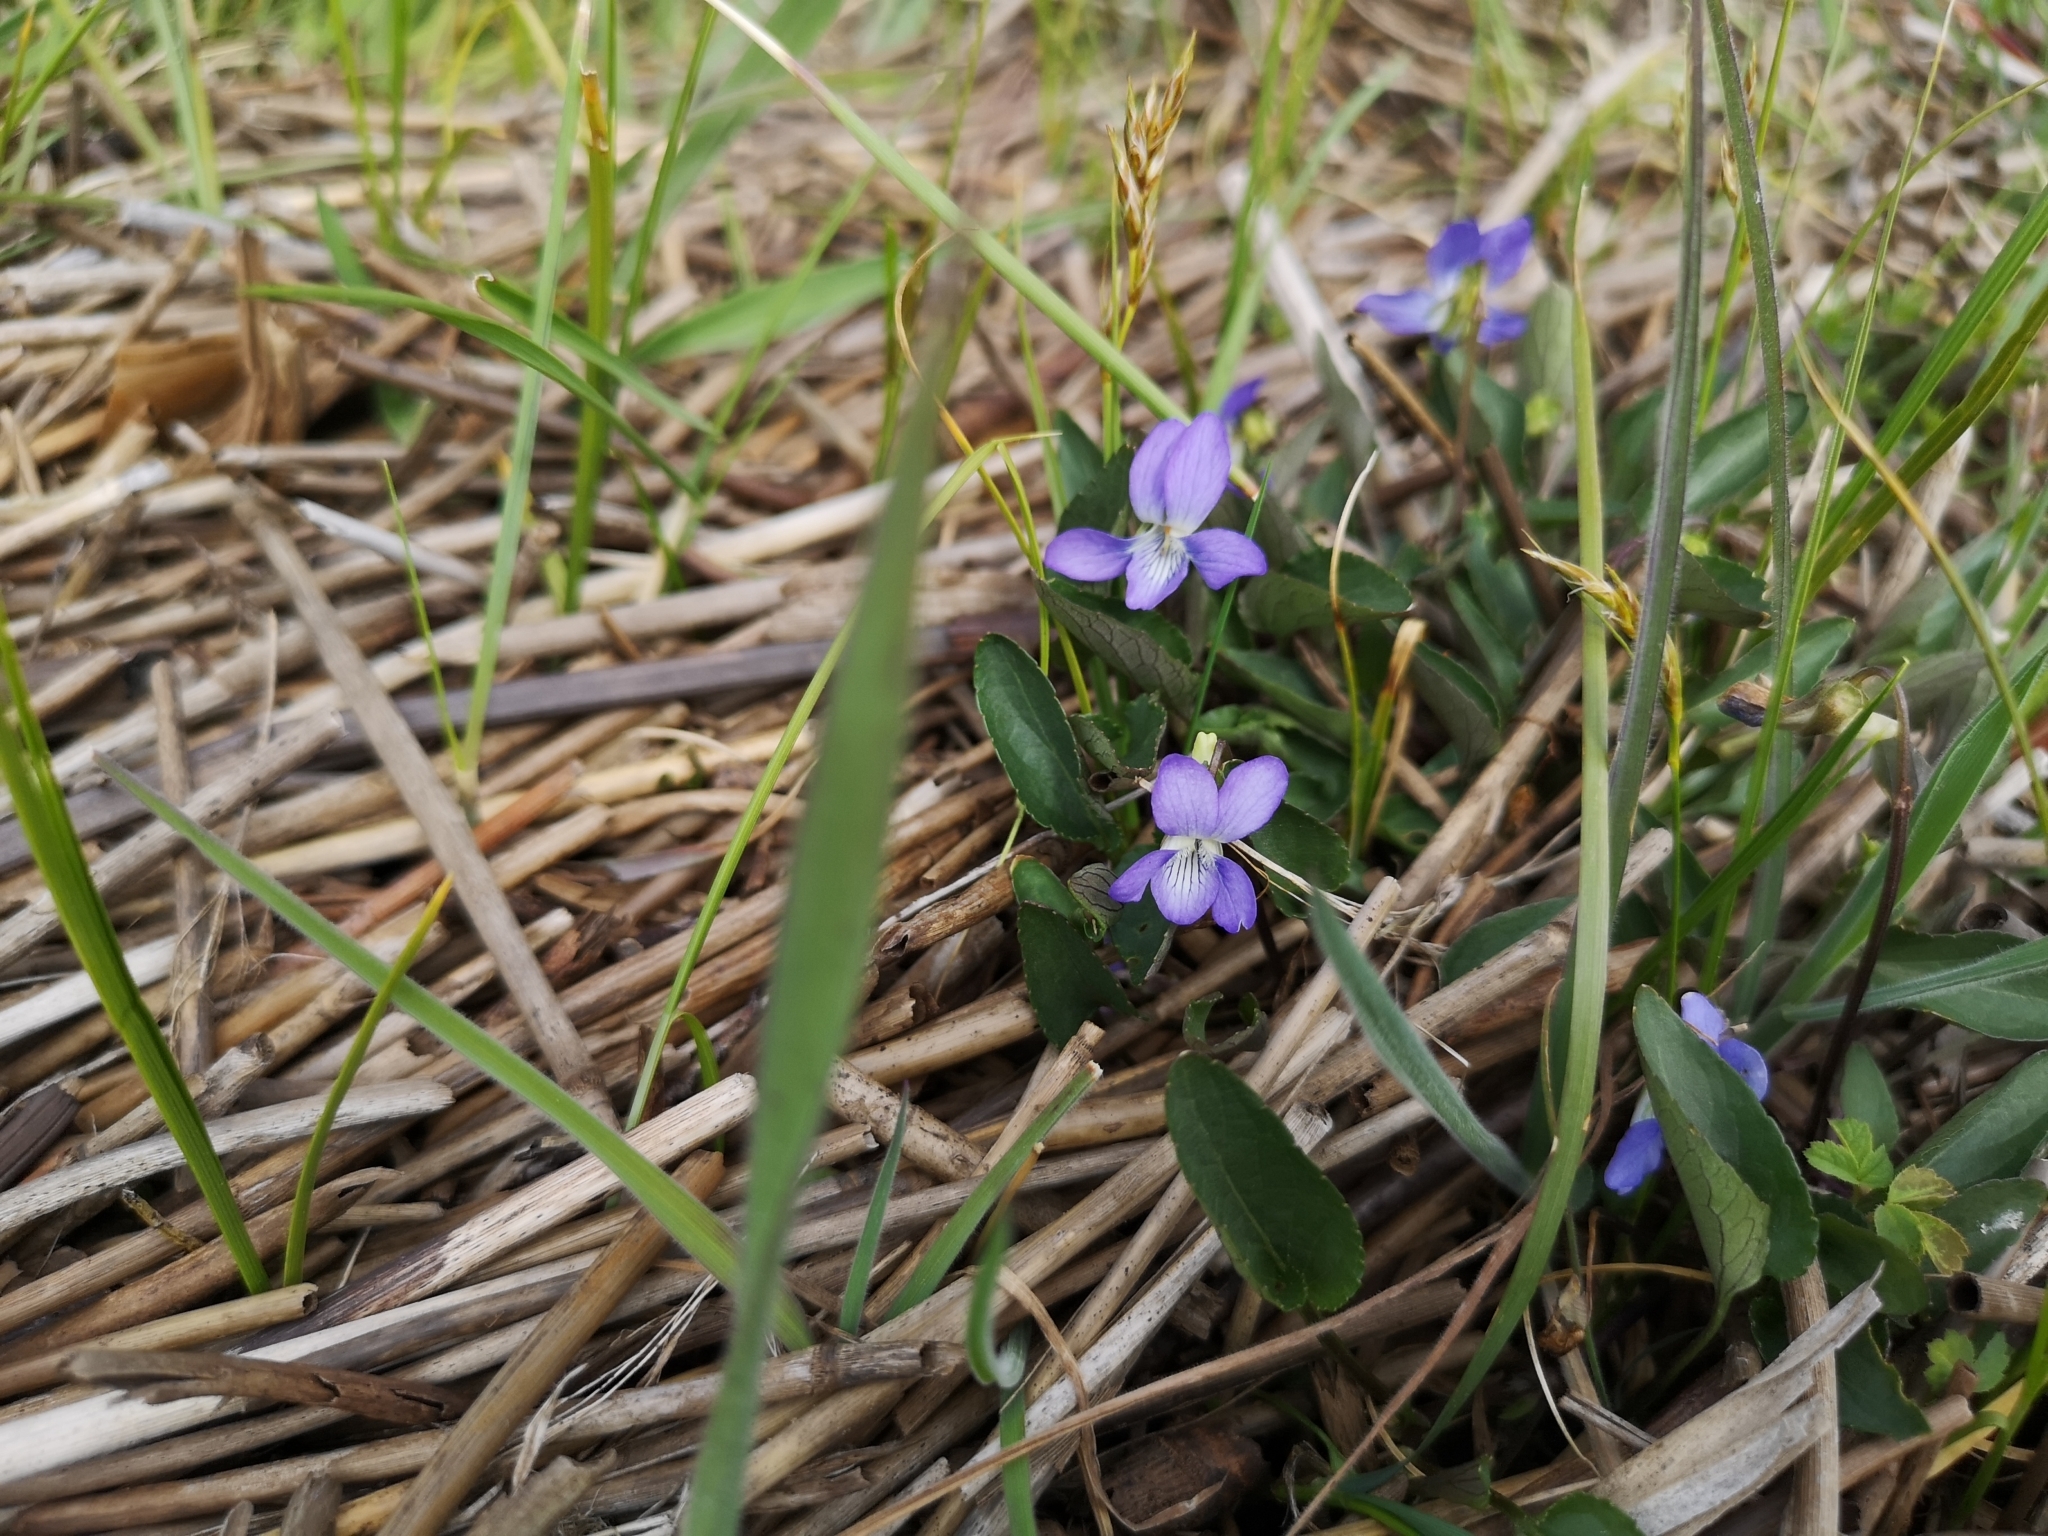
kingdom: Plantae
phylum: Tracheophyta
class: Magnoliopsida
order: Malpighiales
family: Violaceae
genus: Viola
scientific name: Viola canina
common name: Heath dog-violet
